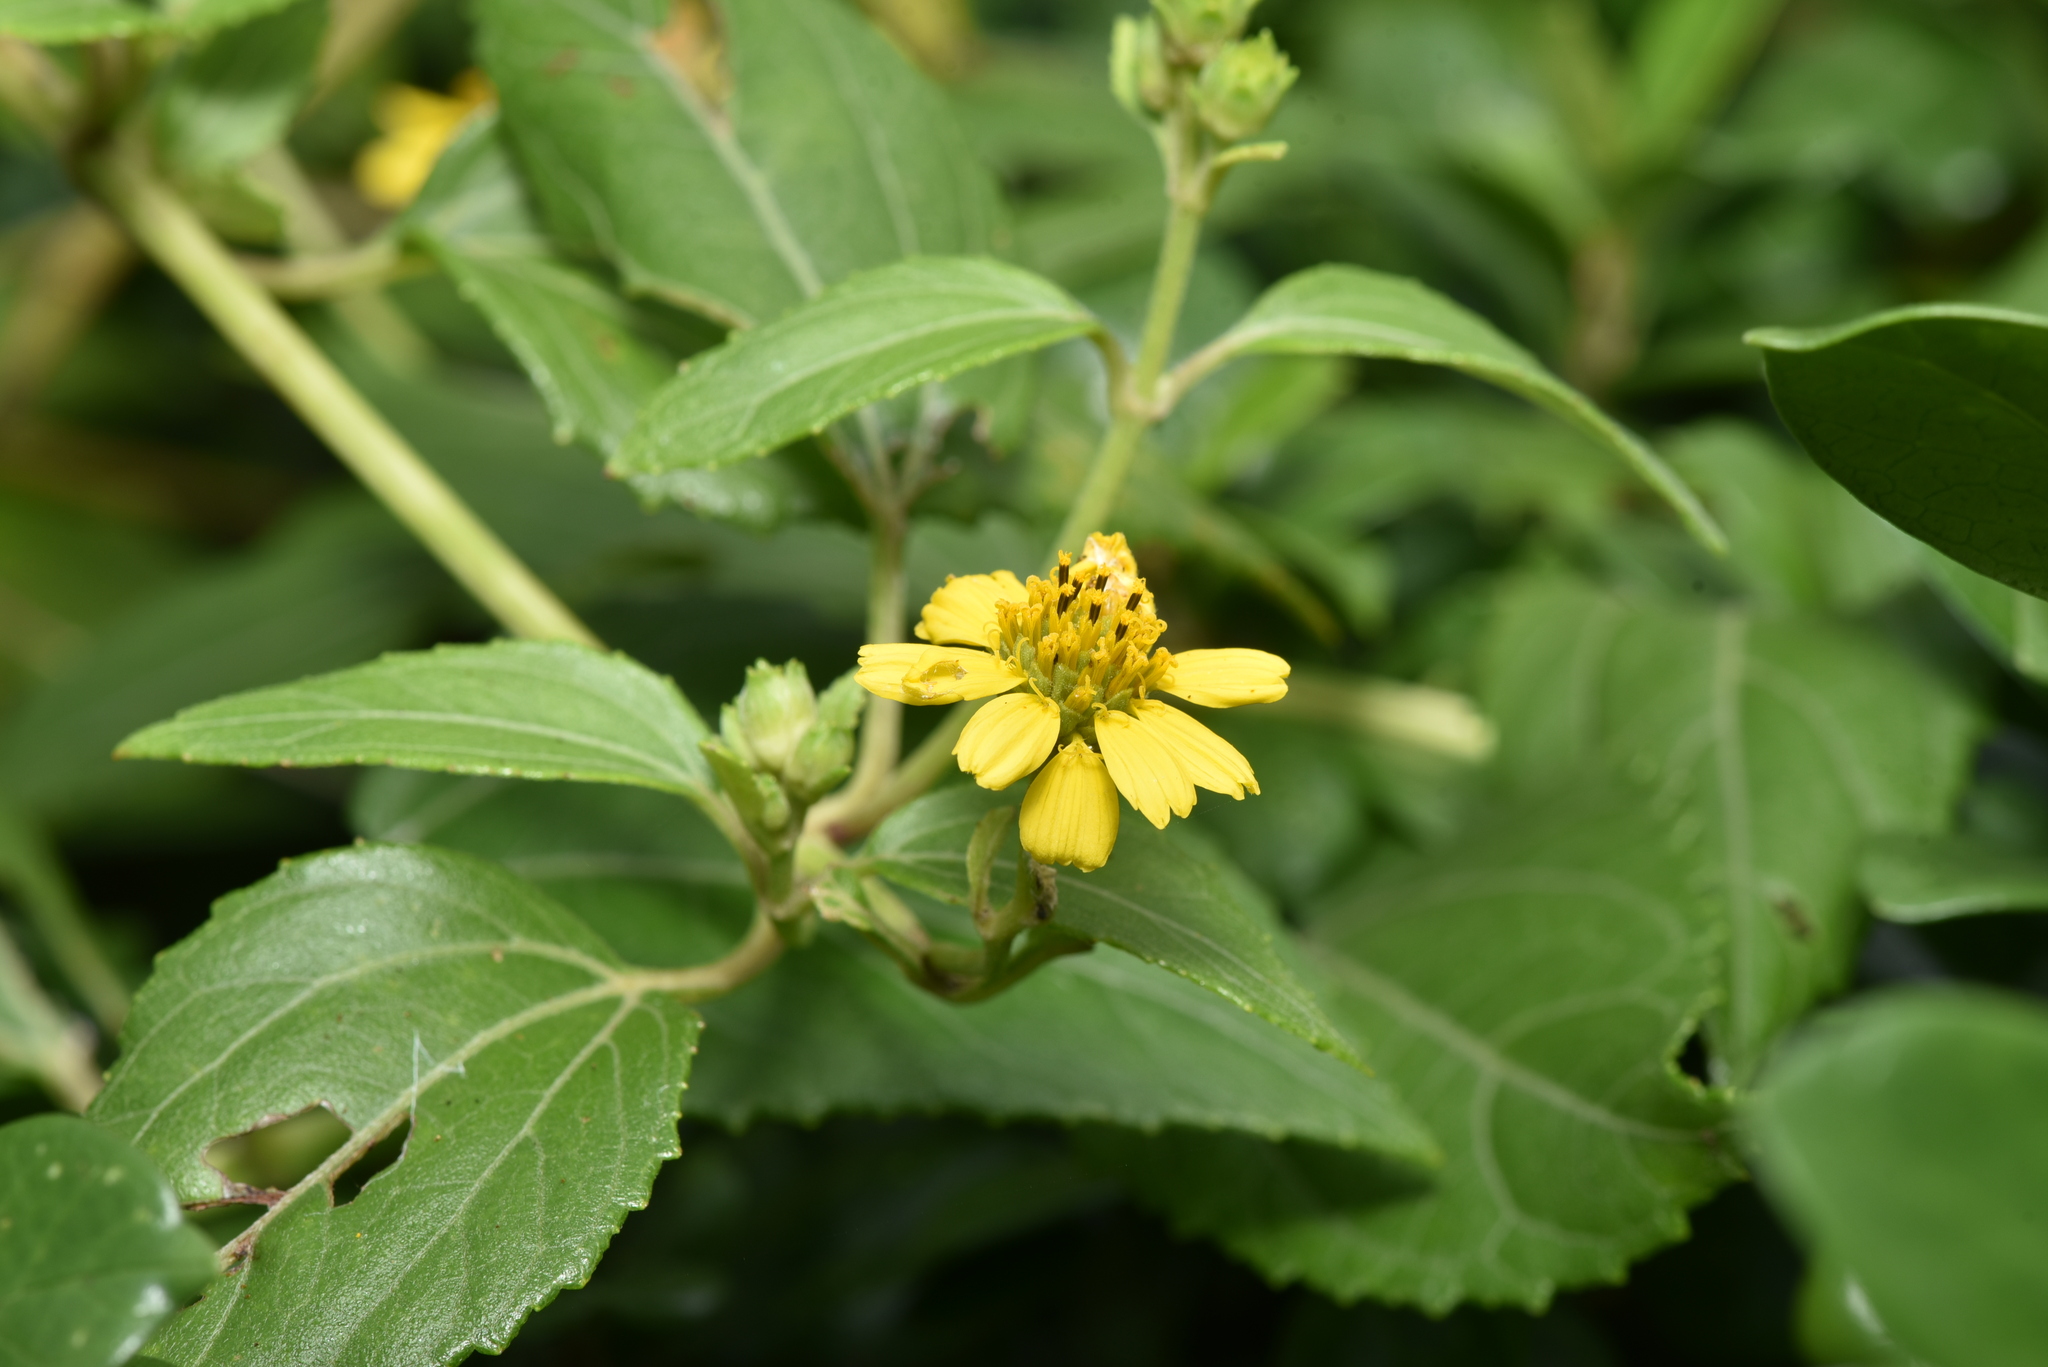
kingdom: Plantae
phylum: Tracheophyta
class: Magnoliopsida
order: Asterales
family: Asteraceae
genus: Wollastonia
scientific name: Wollastonia biflora
